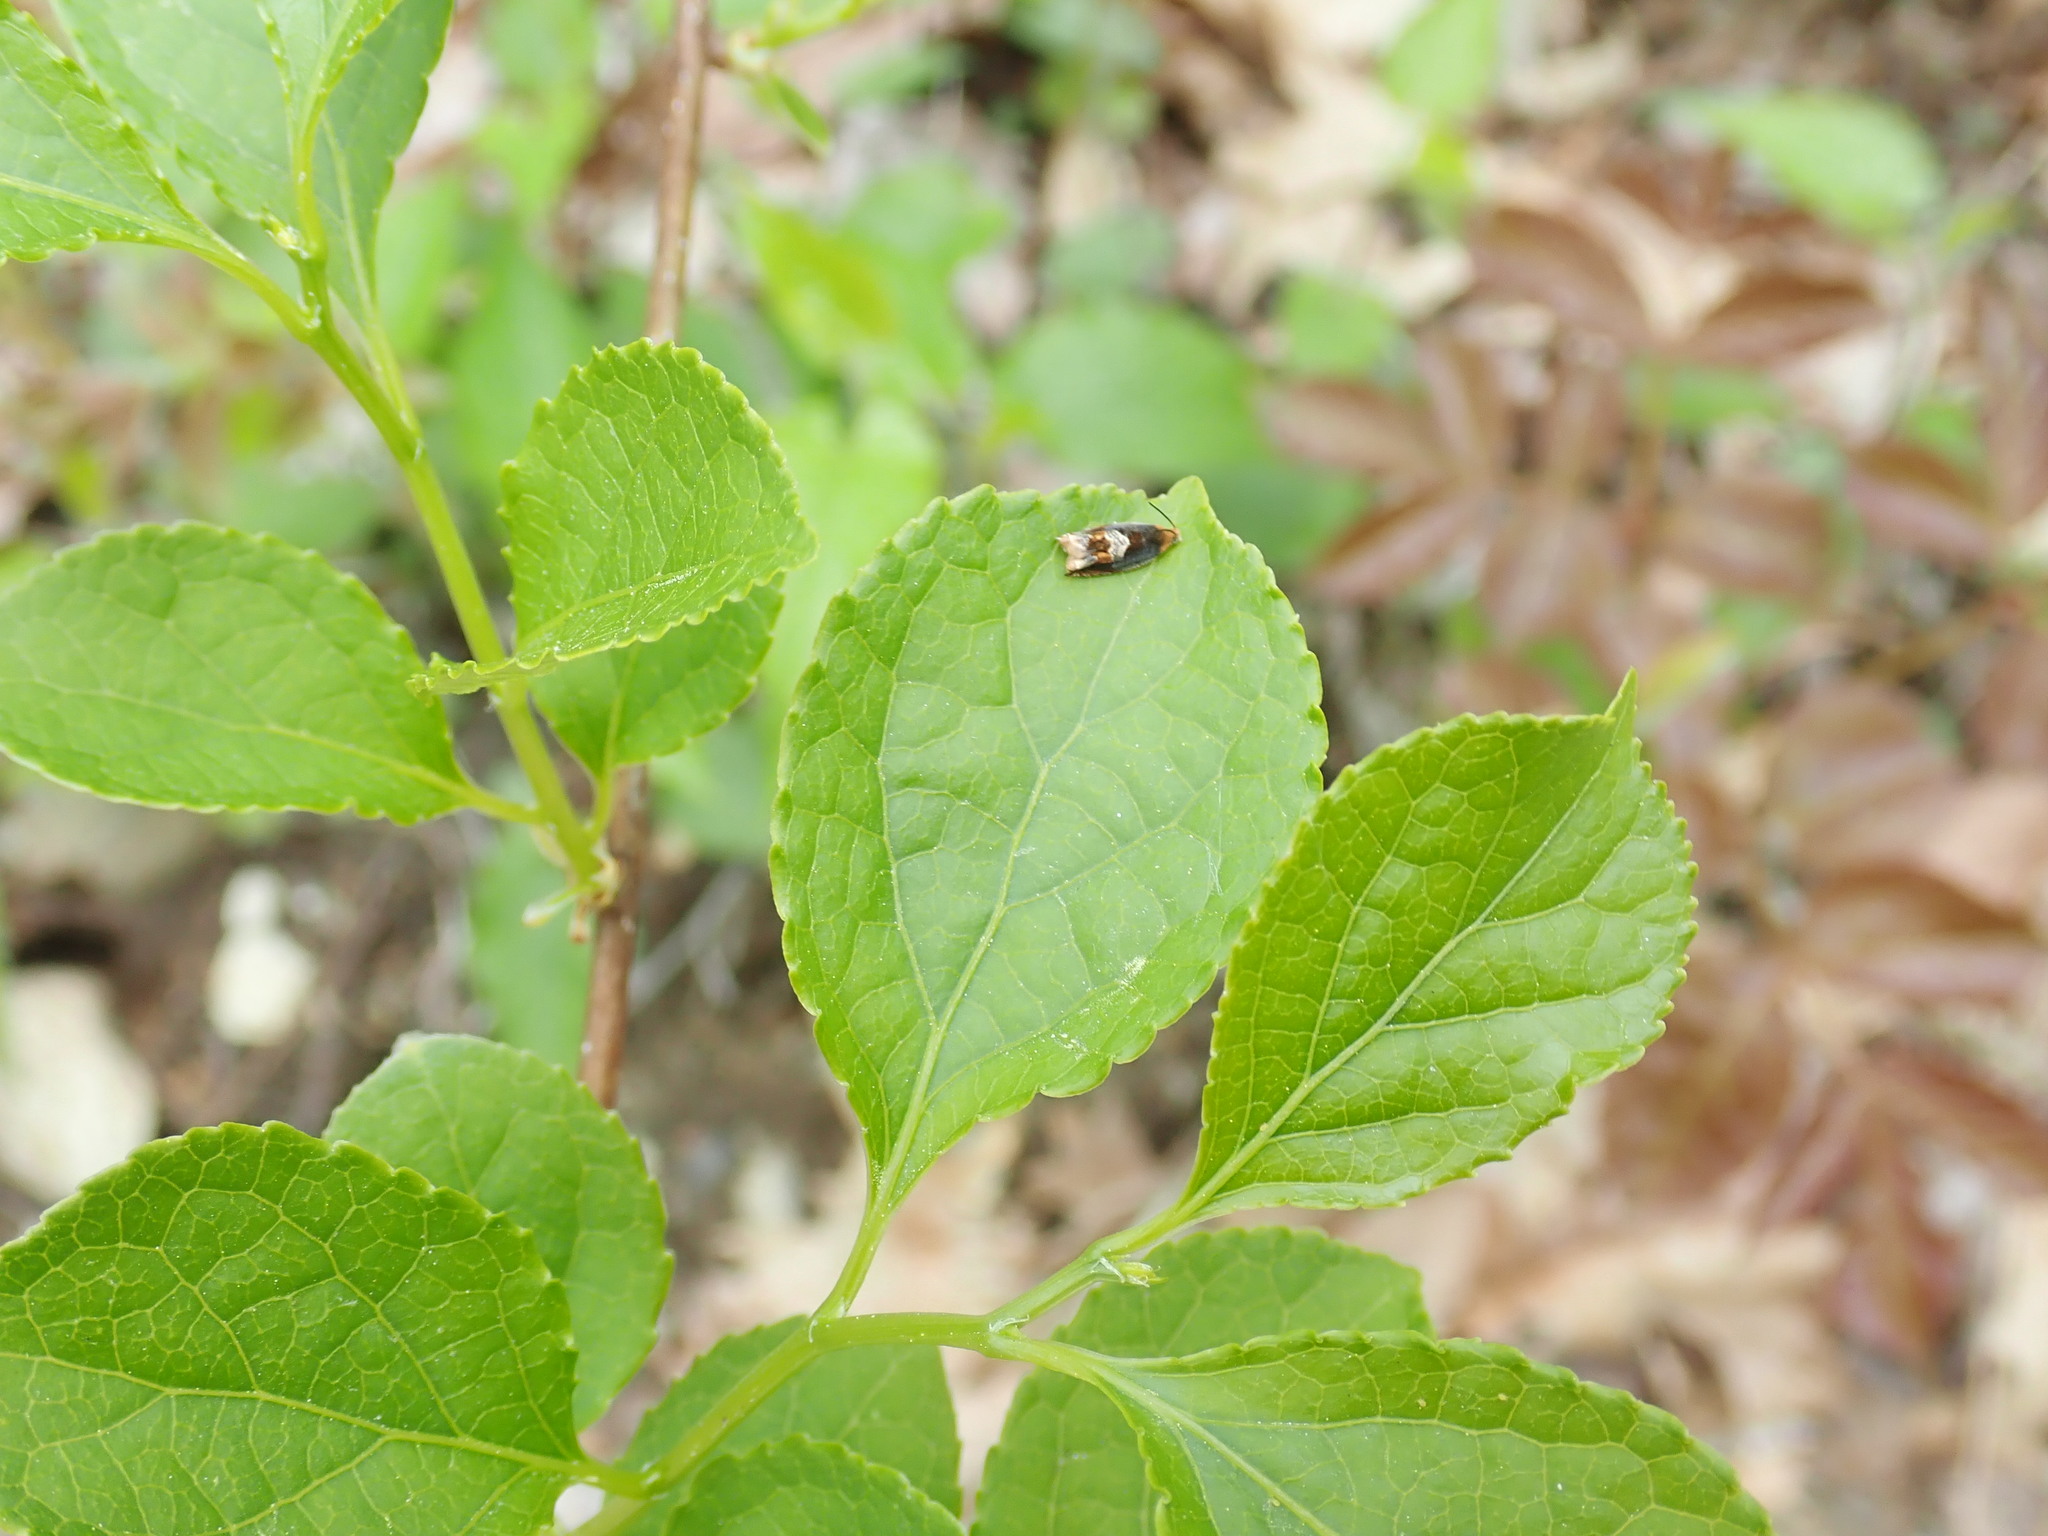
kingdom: Animalia
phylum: Arthropoda
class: Insecta
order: Lepidoptera
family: Tortricidae
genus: Ancylis
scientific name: Ancylis muricana
